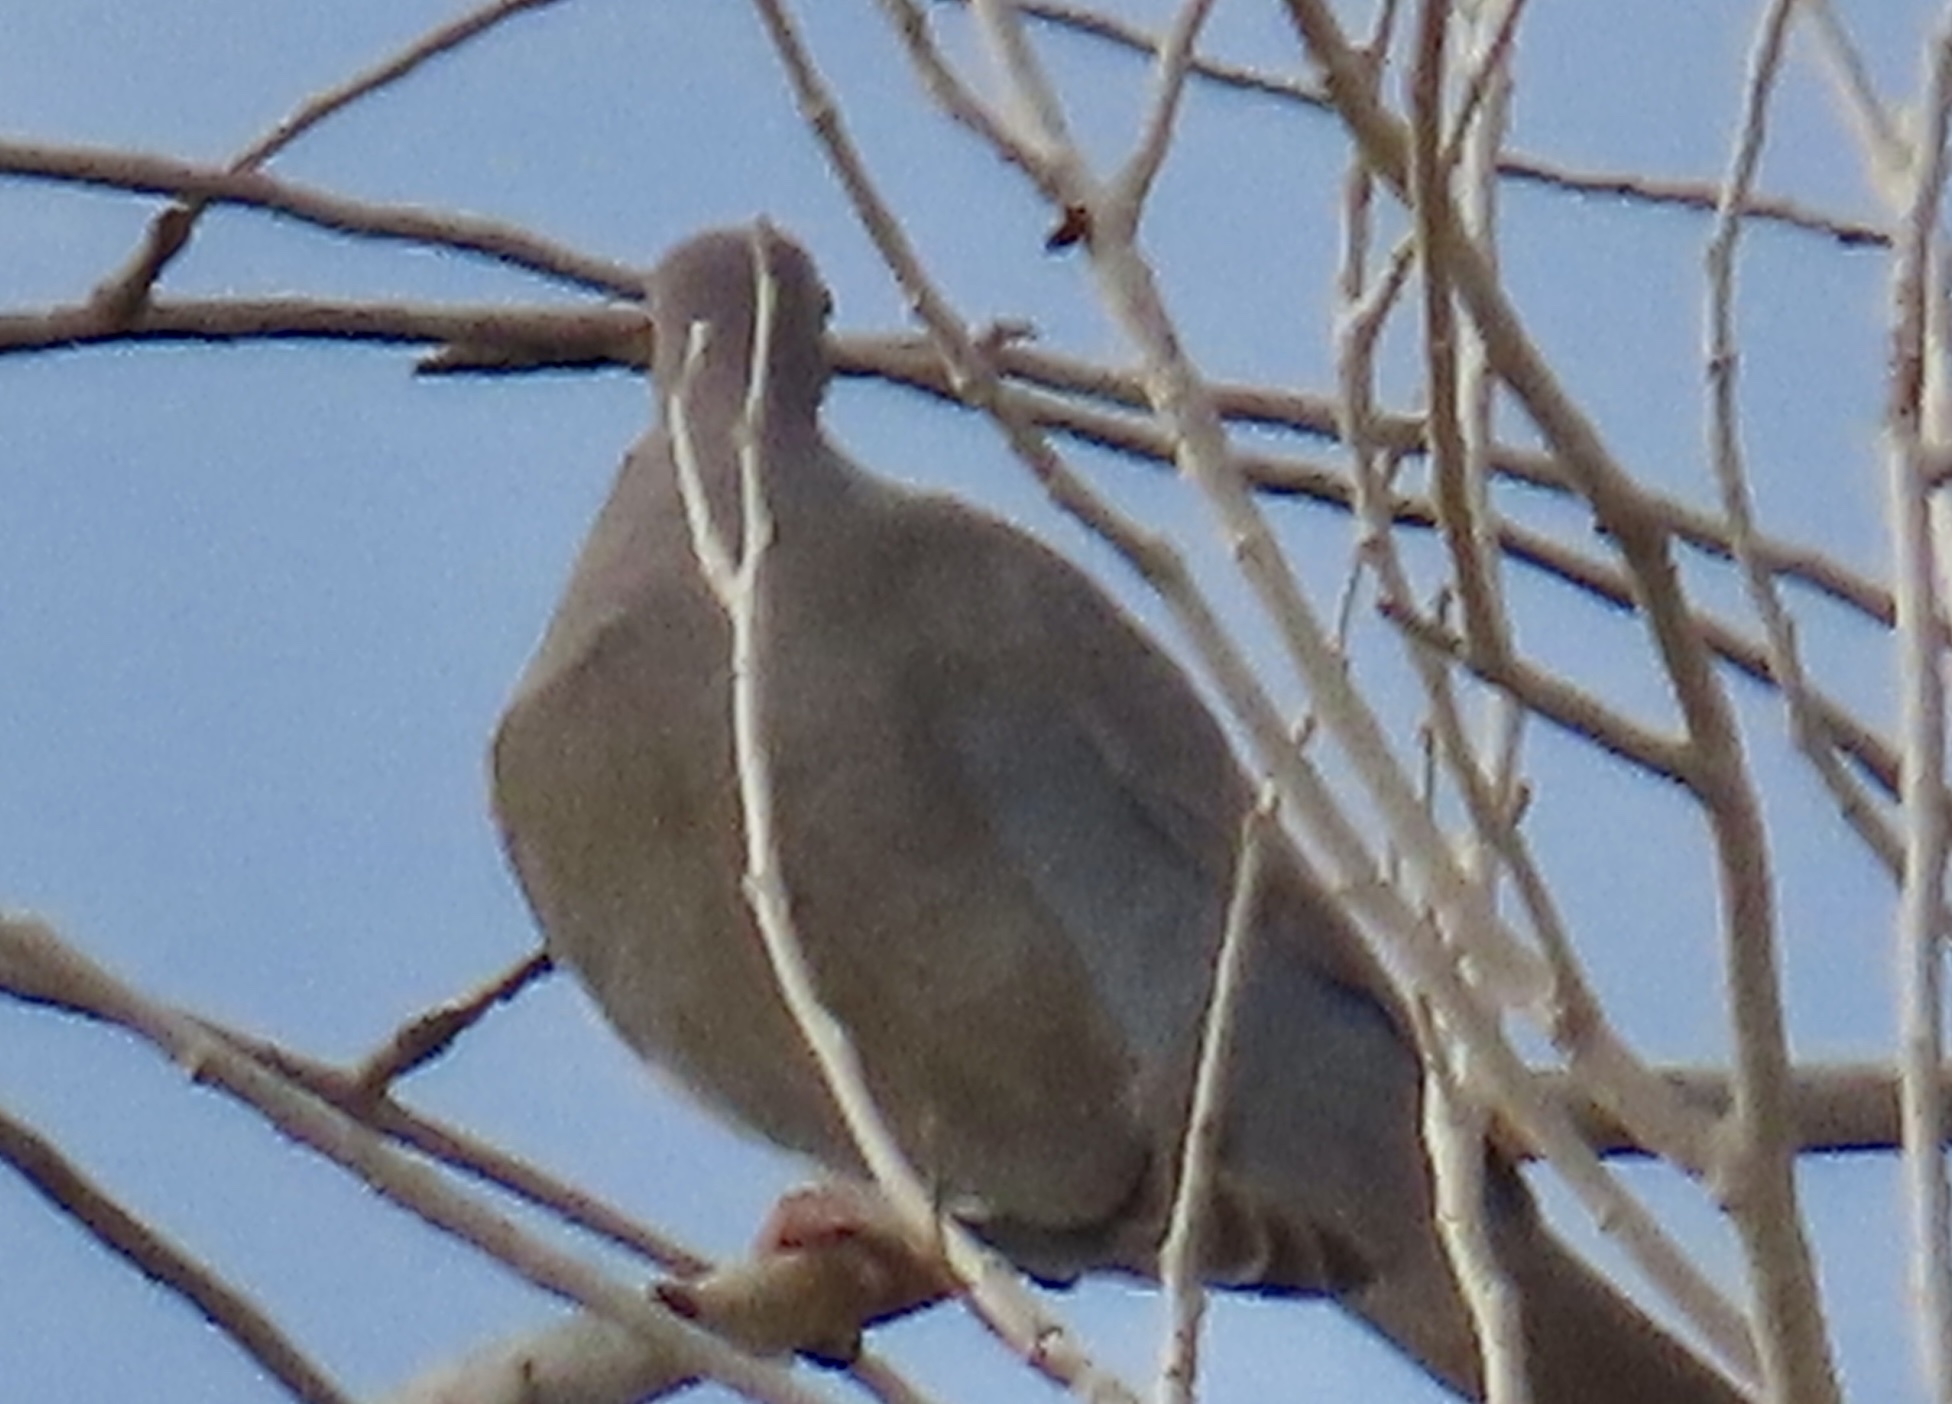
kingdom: Animalia
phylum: Chordata
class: Aves
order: Columbiformes
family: Columbidae
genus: Zenaida
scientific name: Zenaida asiatica
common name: White-winged dove
